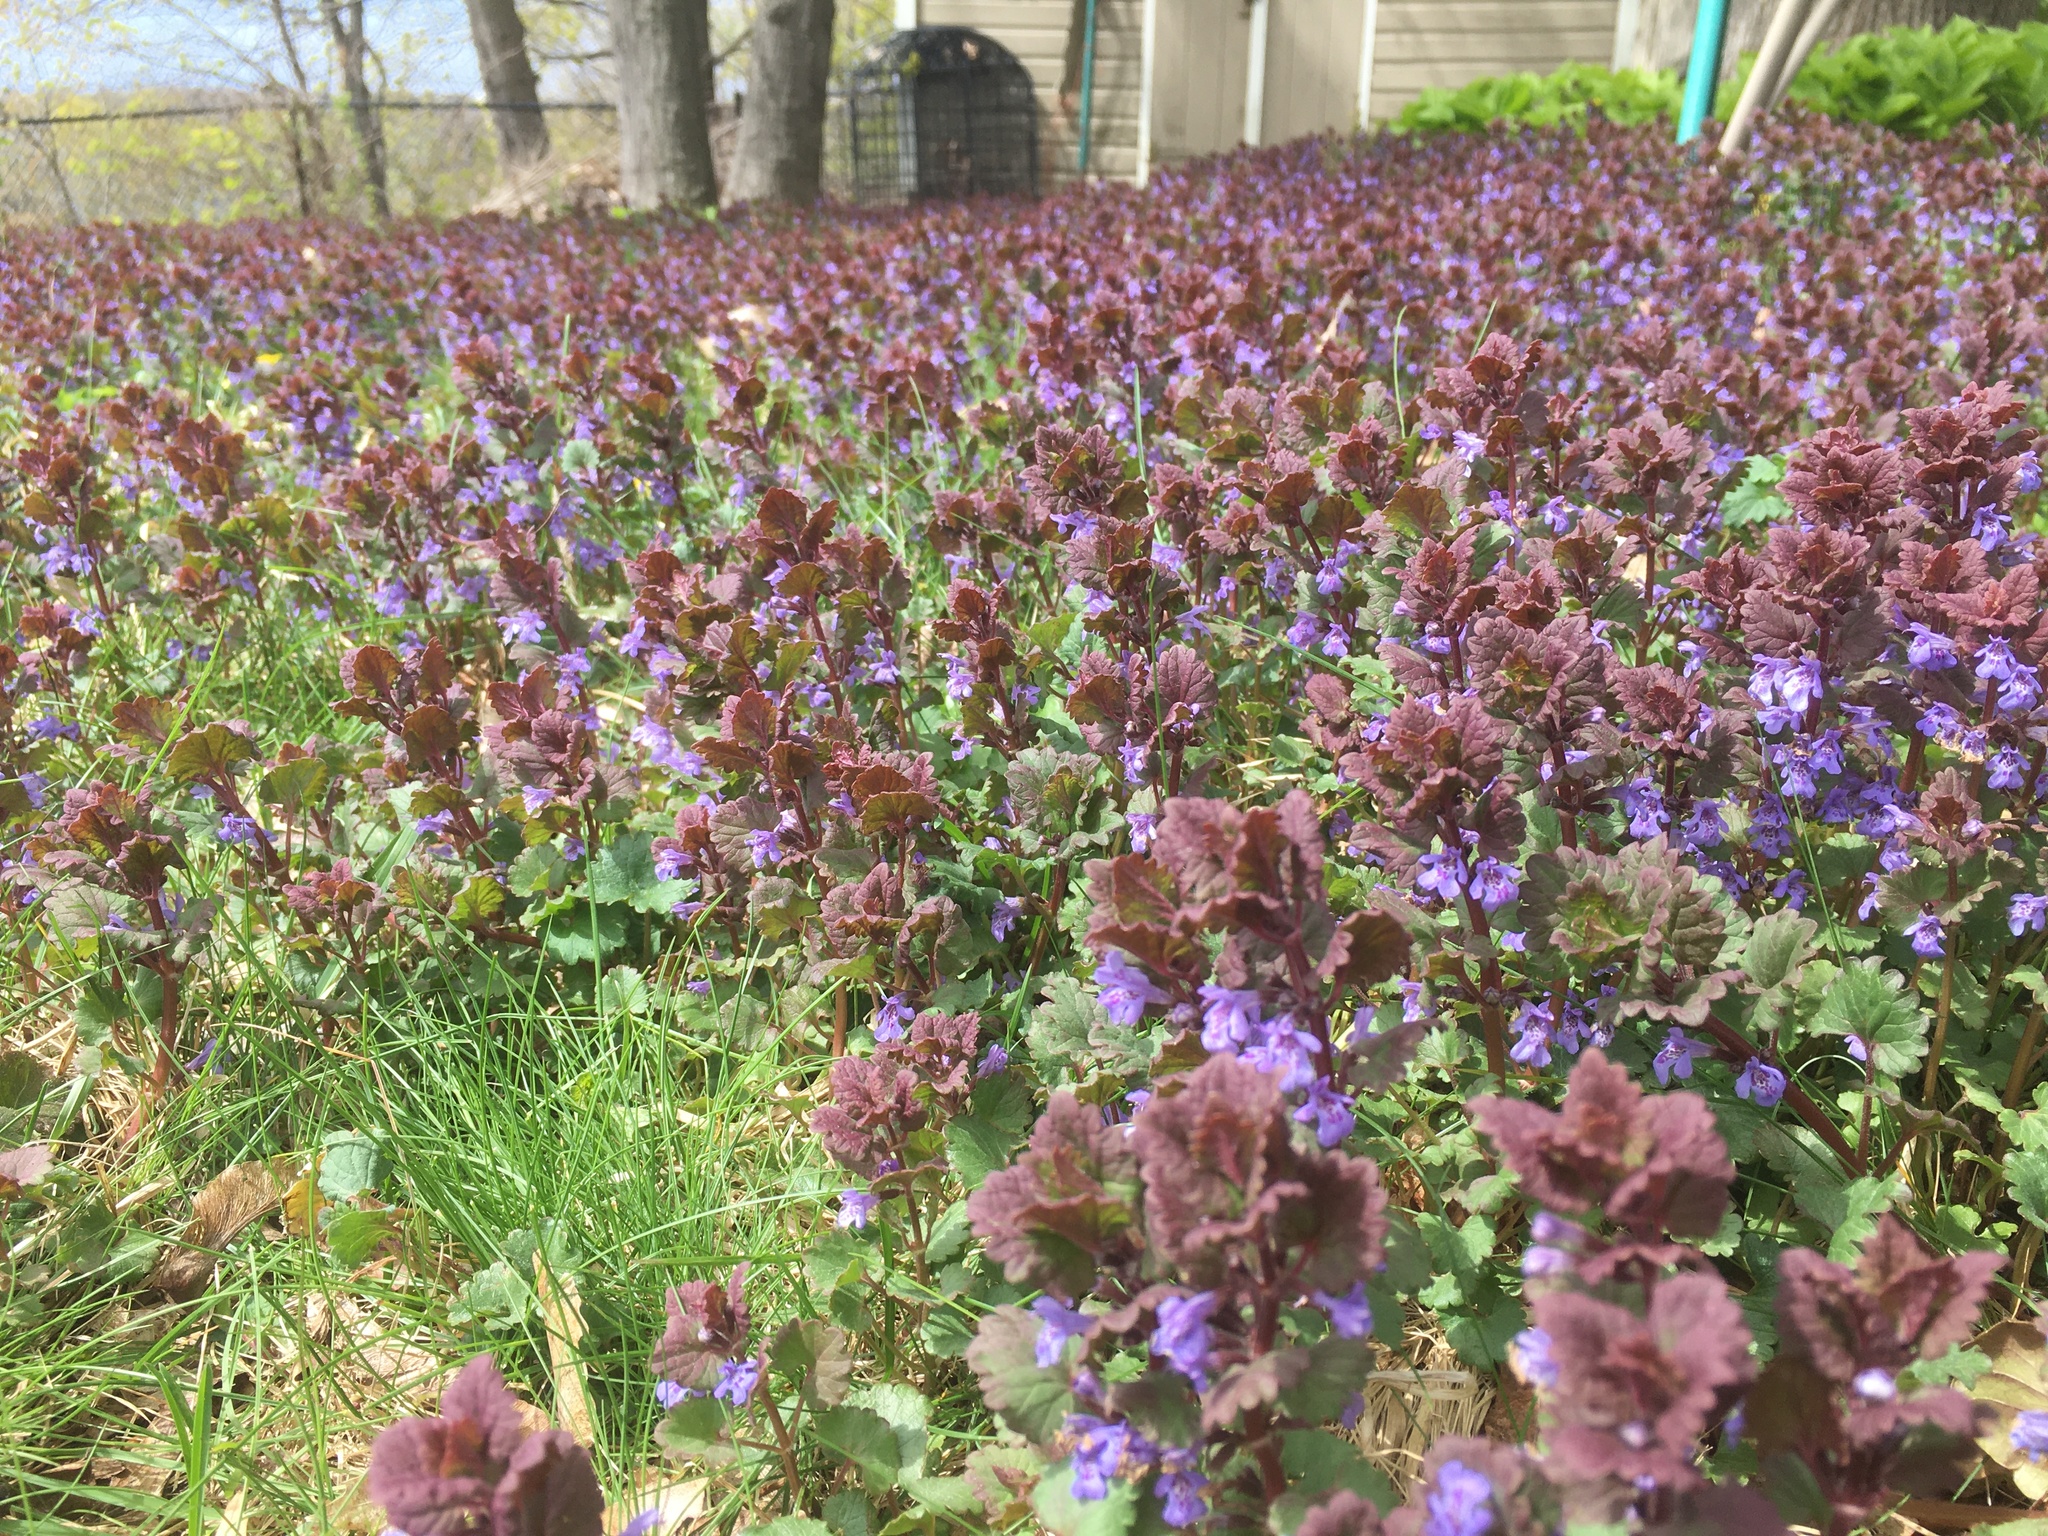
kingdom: Plantae
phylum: Tracheophyta
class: Magnoliopsida
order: Lamiales
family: Lamiaceae
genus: Glechoma
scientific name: Glechoma hederacea
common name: Ground ivy
